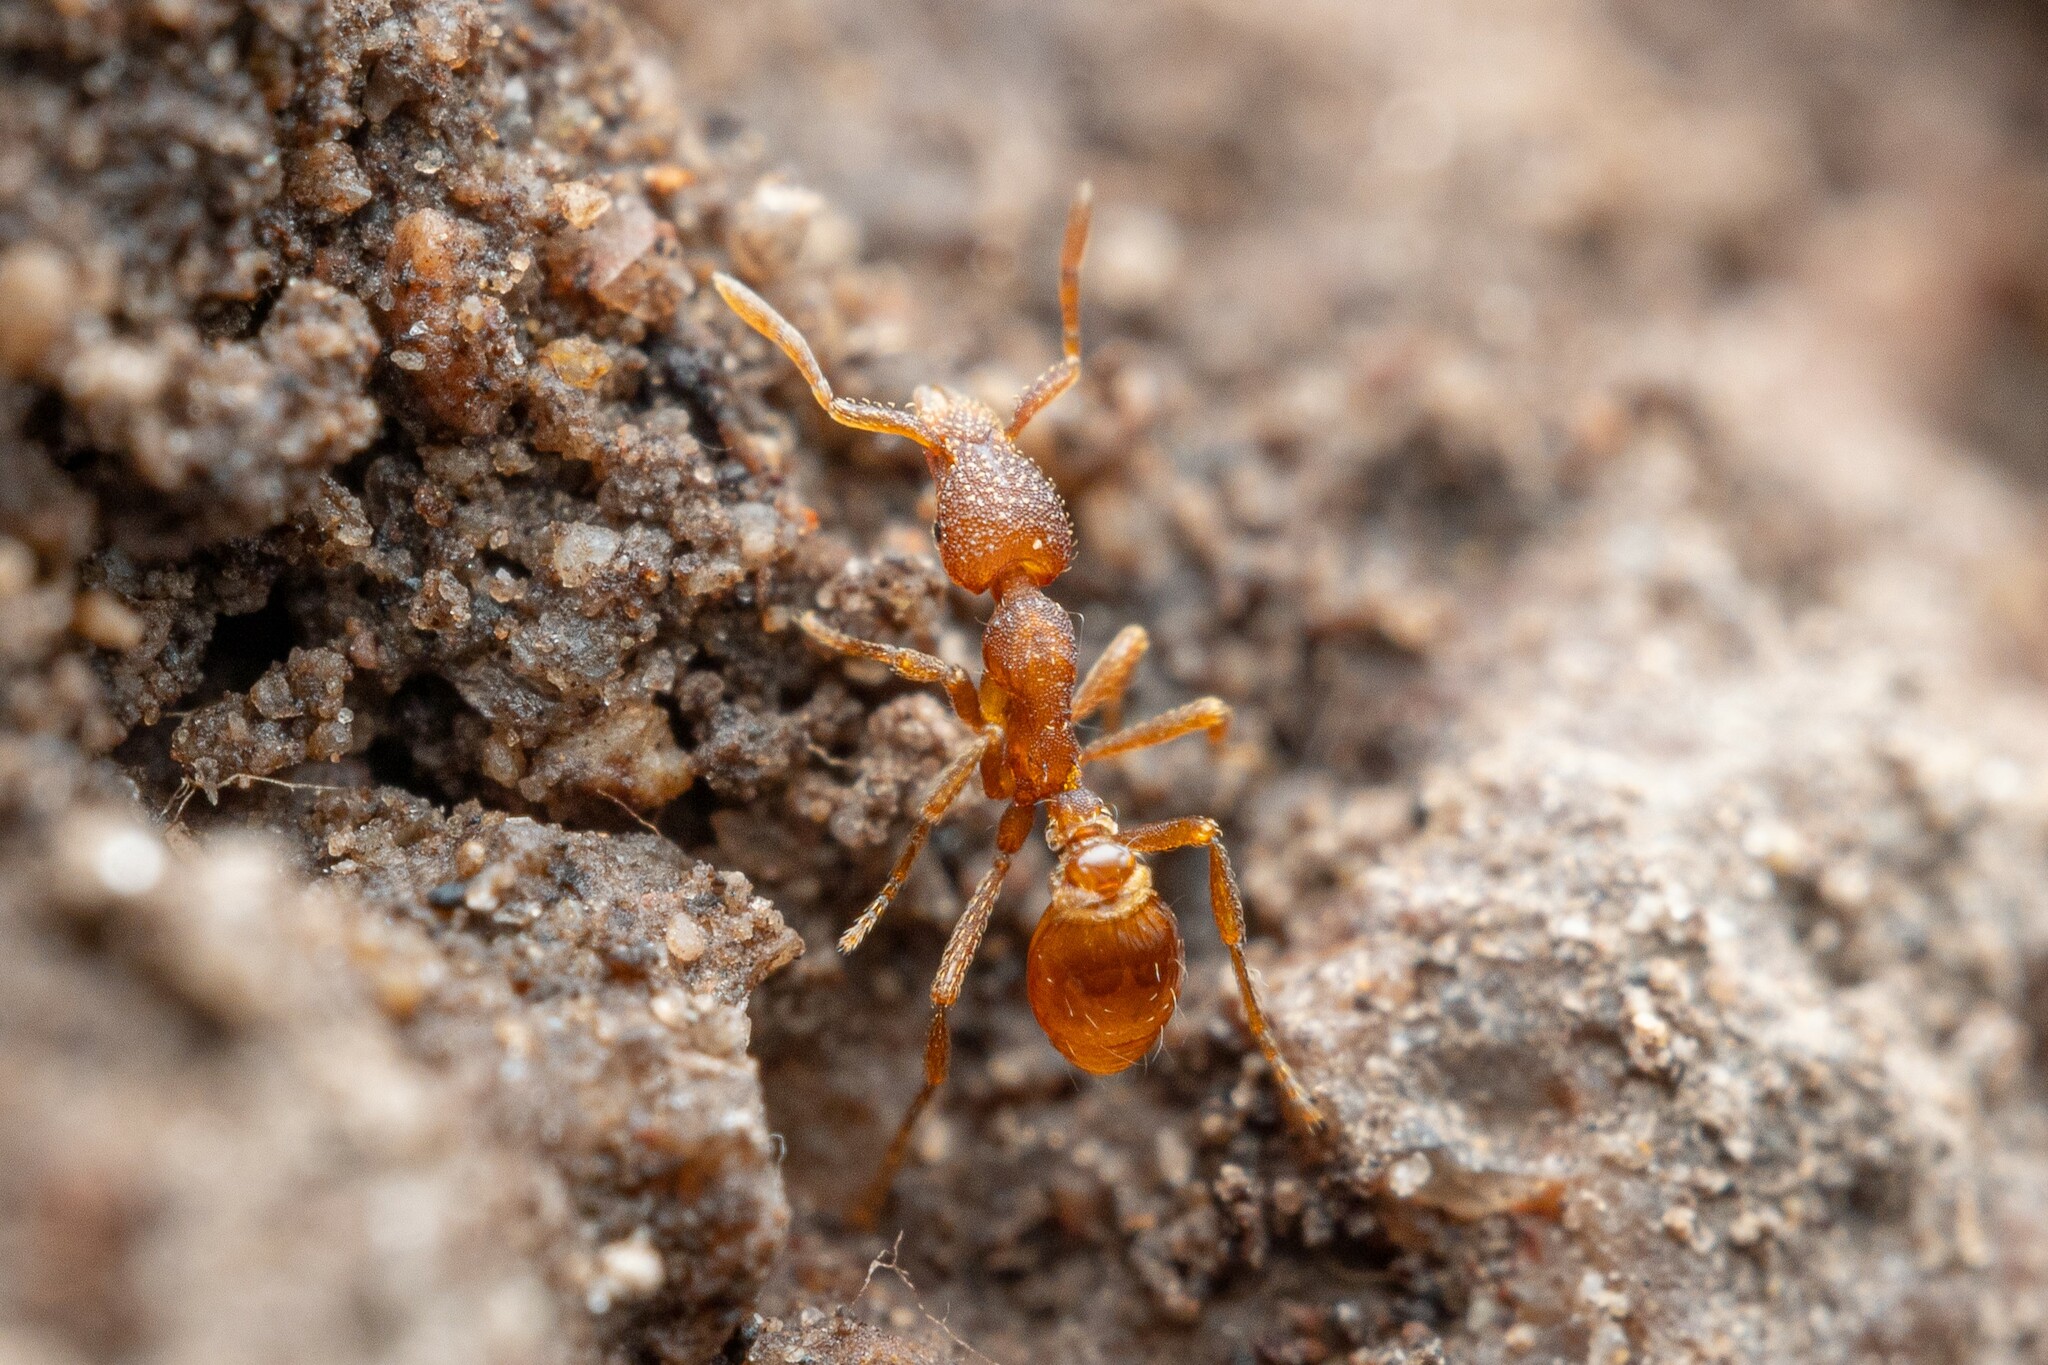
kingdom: Animalia
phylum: Arthropoda
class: Insecta
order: Hymenoptera
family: Formicidae
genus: Pyramica
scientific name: Pyramica arizonica
